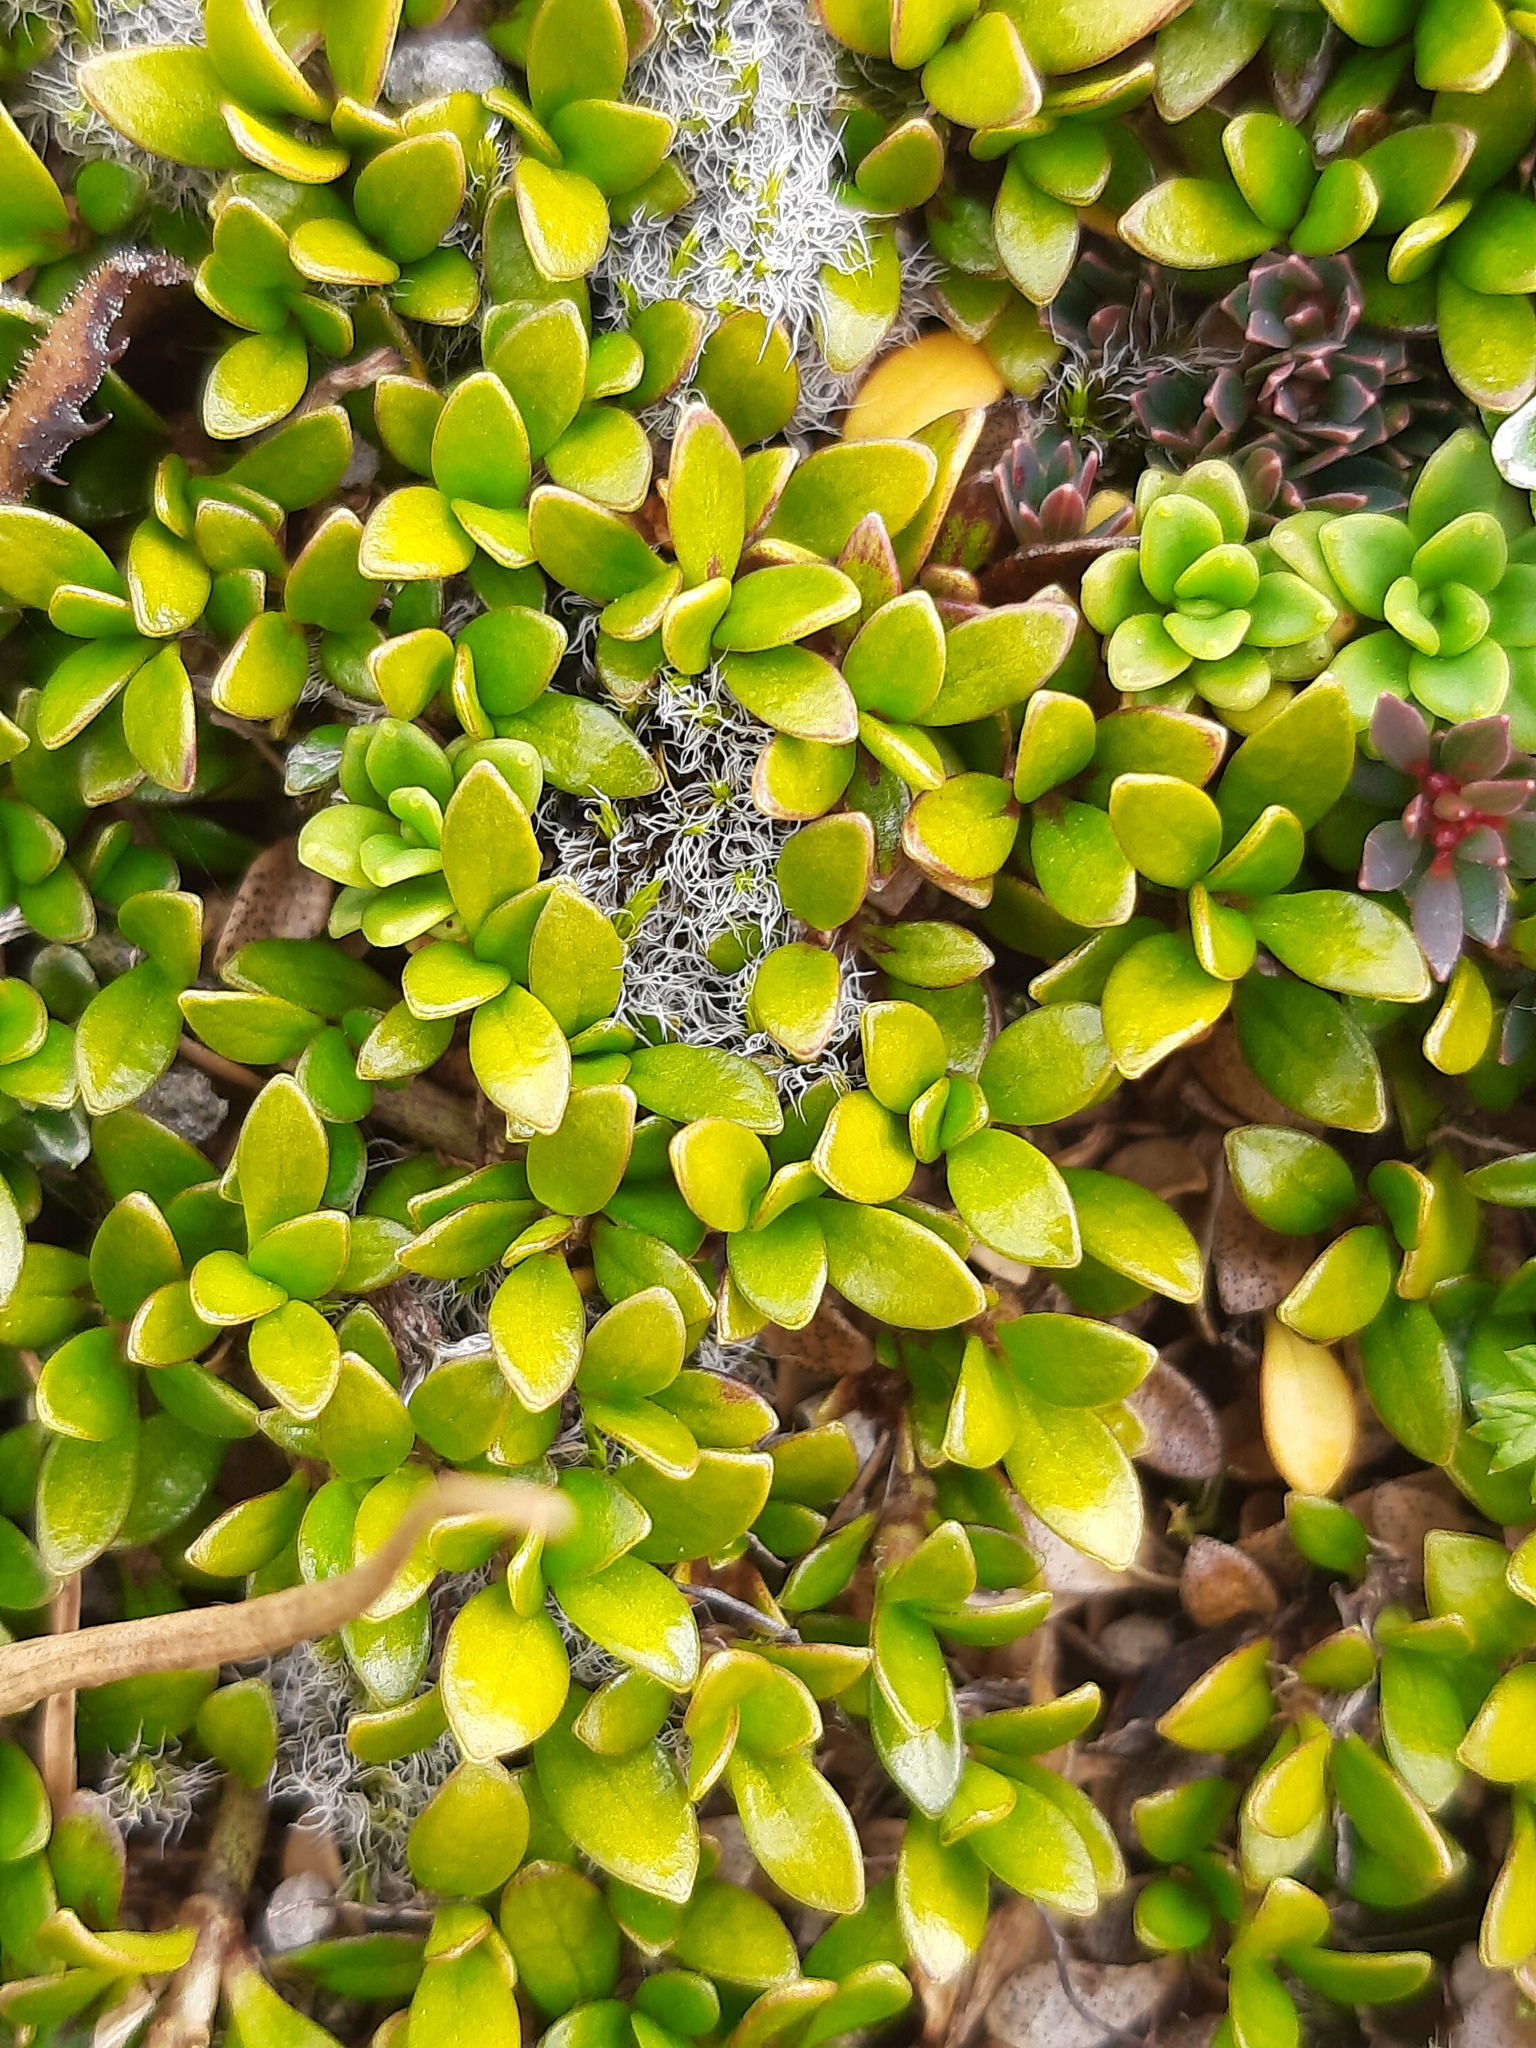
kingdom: Plantae
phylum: Tracheophyta
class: Magnoliopsida
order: Gentianales
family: Rubiaceae
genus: Coprosma
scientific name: Coprosma perpusilla
